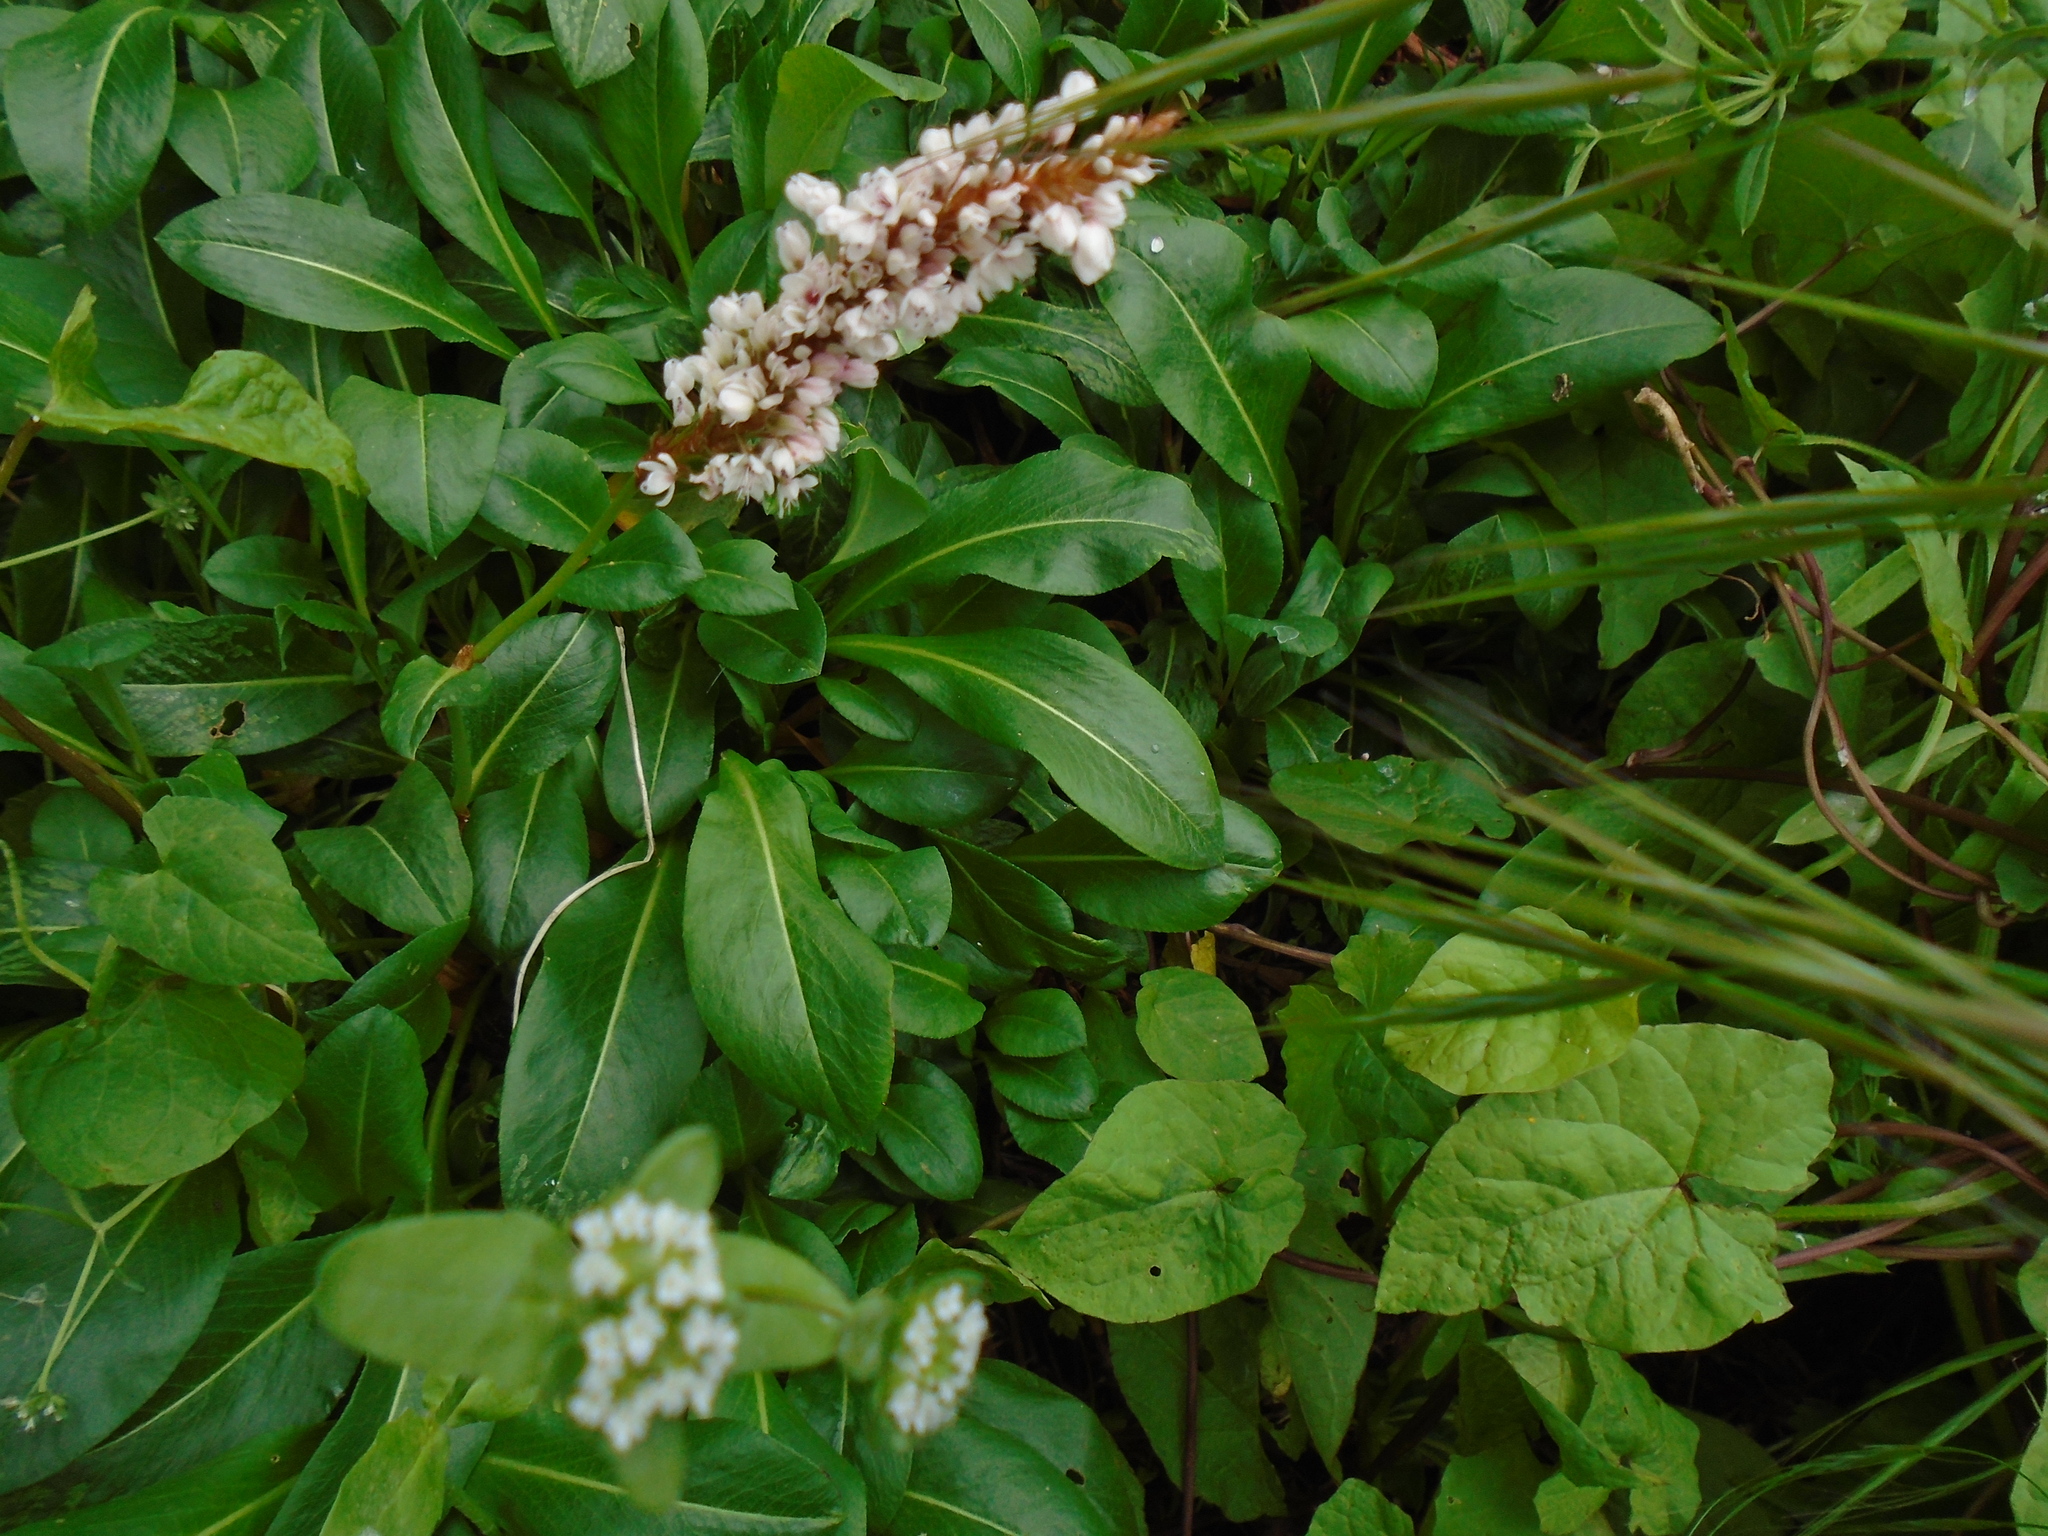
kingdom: Plantae
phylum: Tracheophyta
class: Magnoliopsida
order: Caryophyllales
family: Polygonaceae
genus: Bistorta
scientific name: Bistorta affinis
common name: Himalayan fleeceflower
